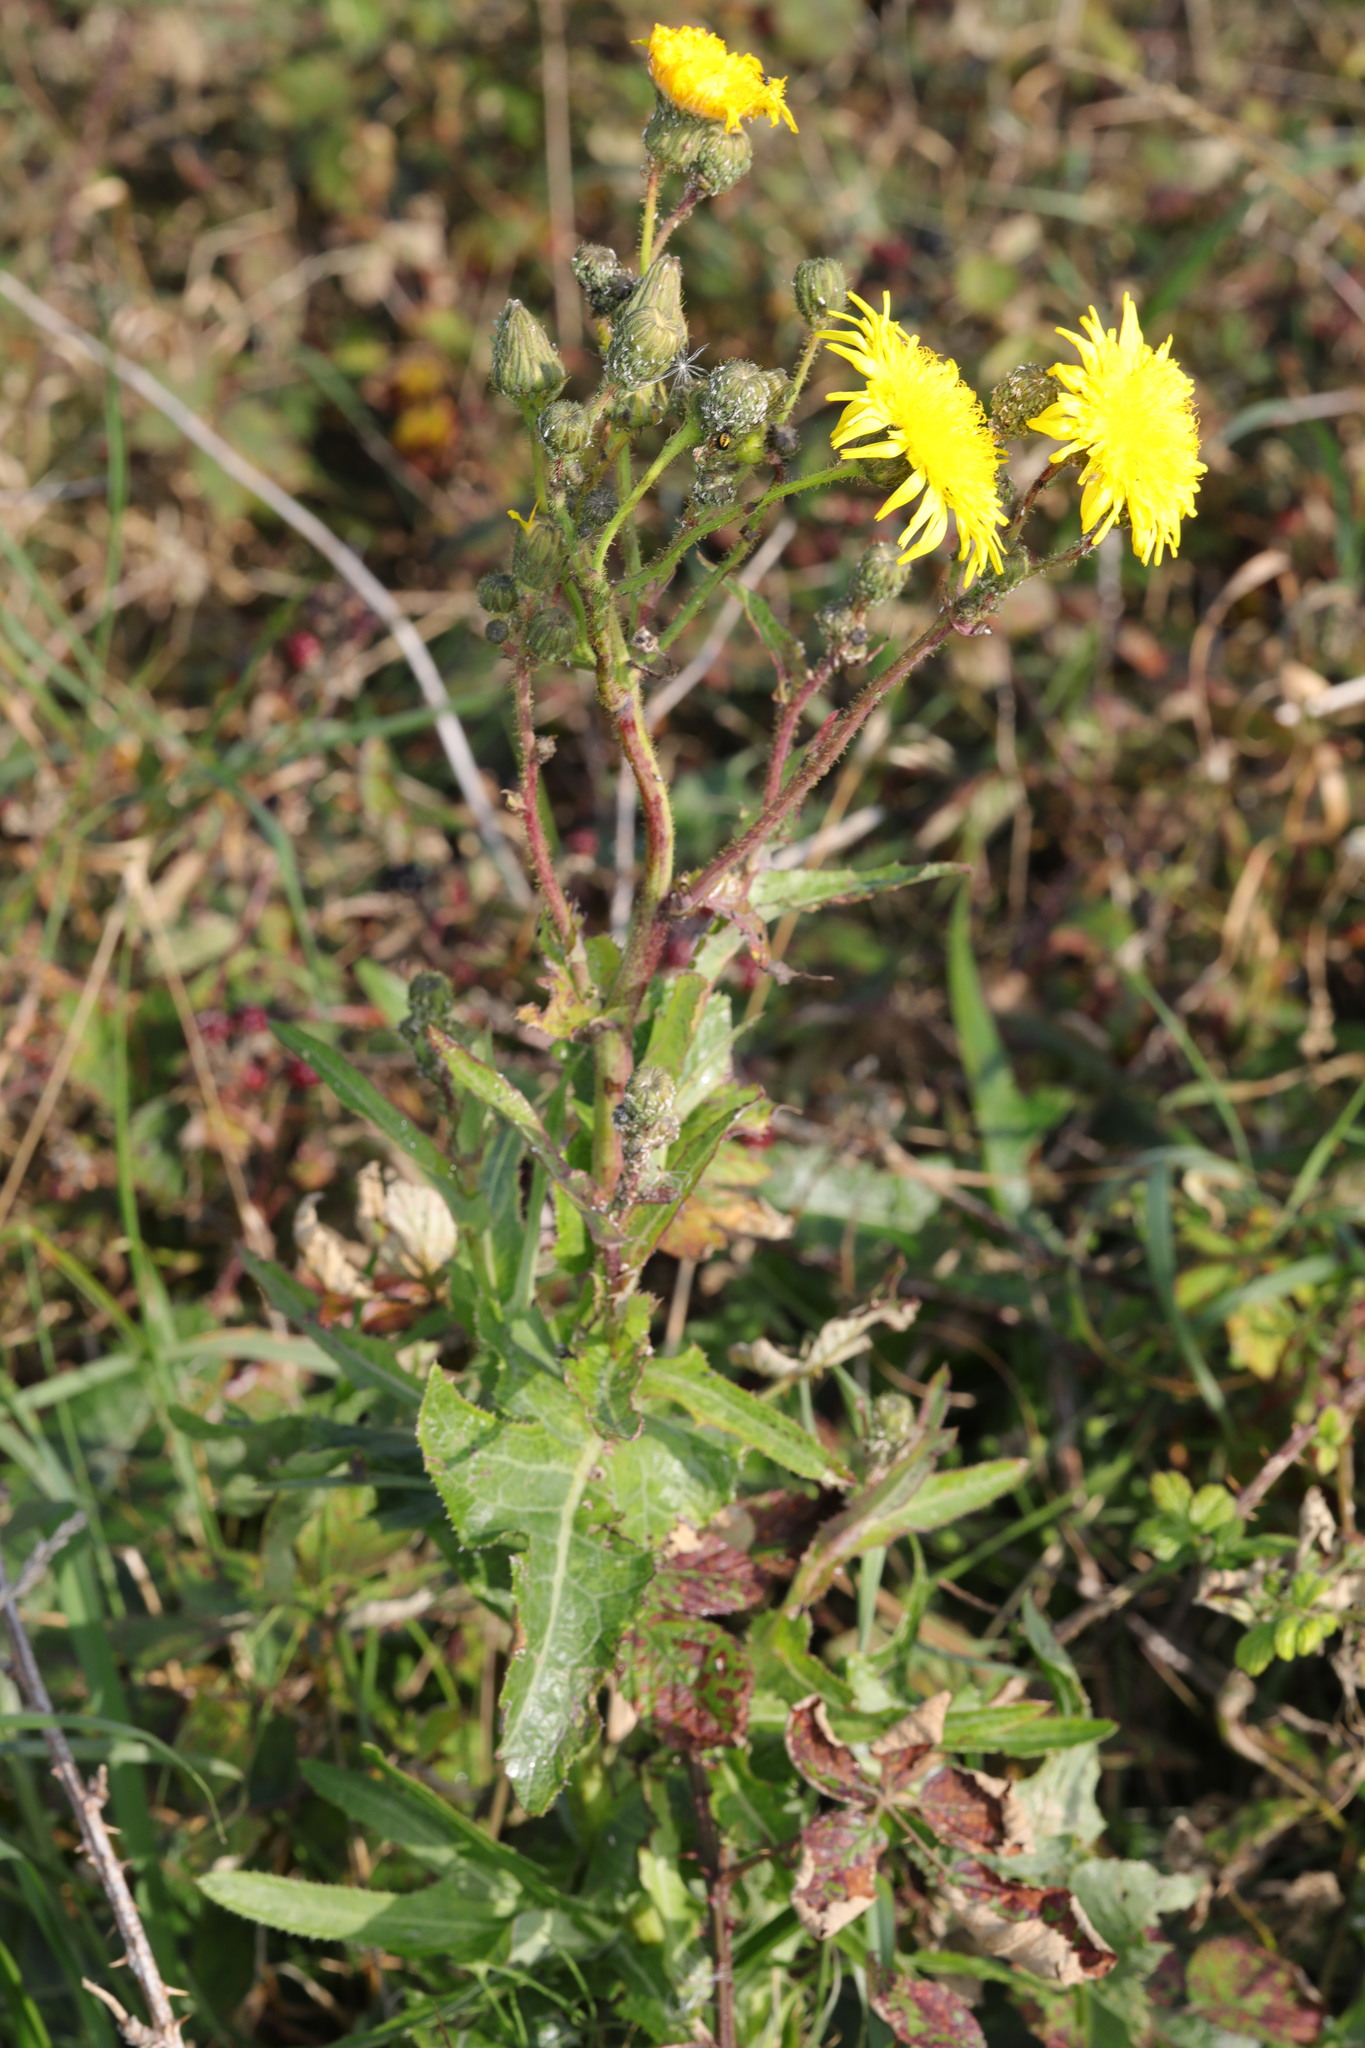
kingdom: Plantae
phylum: Tracheophyta
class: Magnoliopsida
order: Asterales
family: Asteraceae
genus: Sonchus
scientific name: Sonchus arvensis
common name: Perennial sow-thistle
